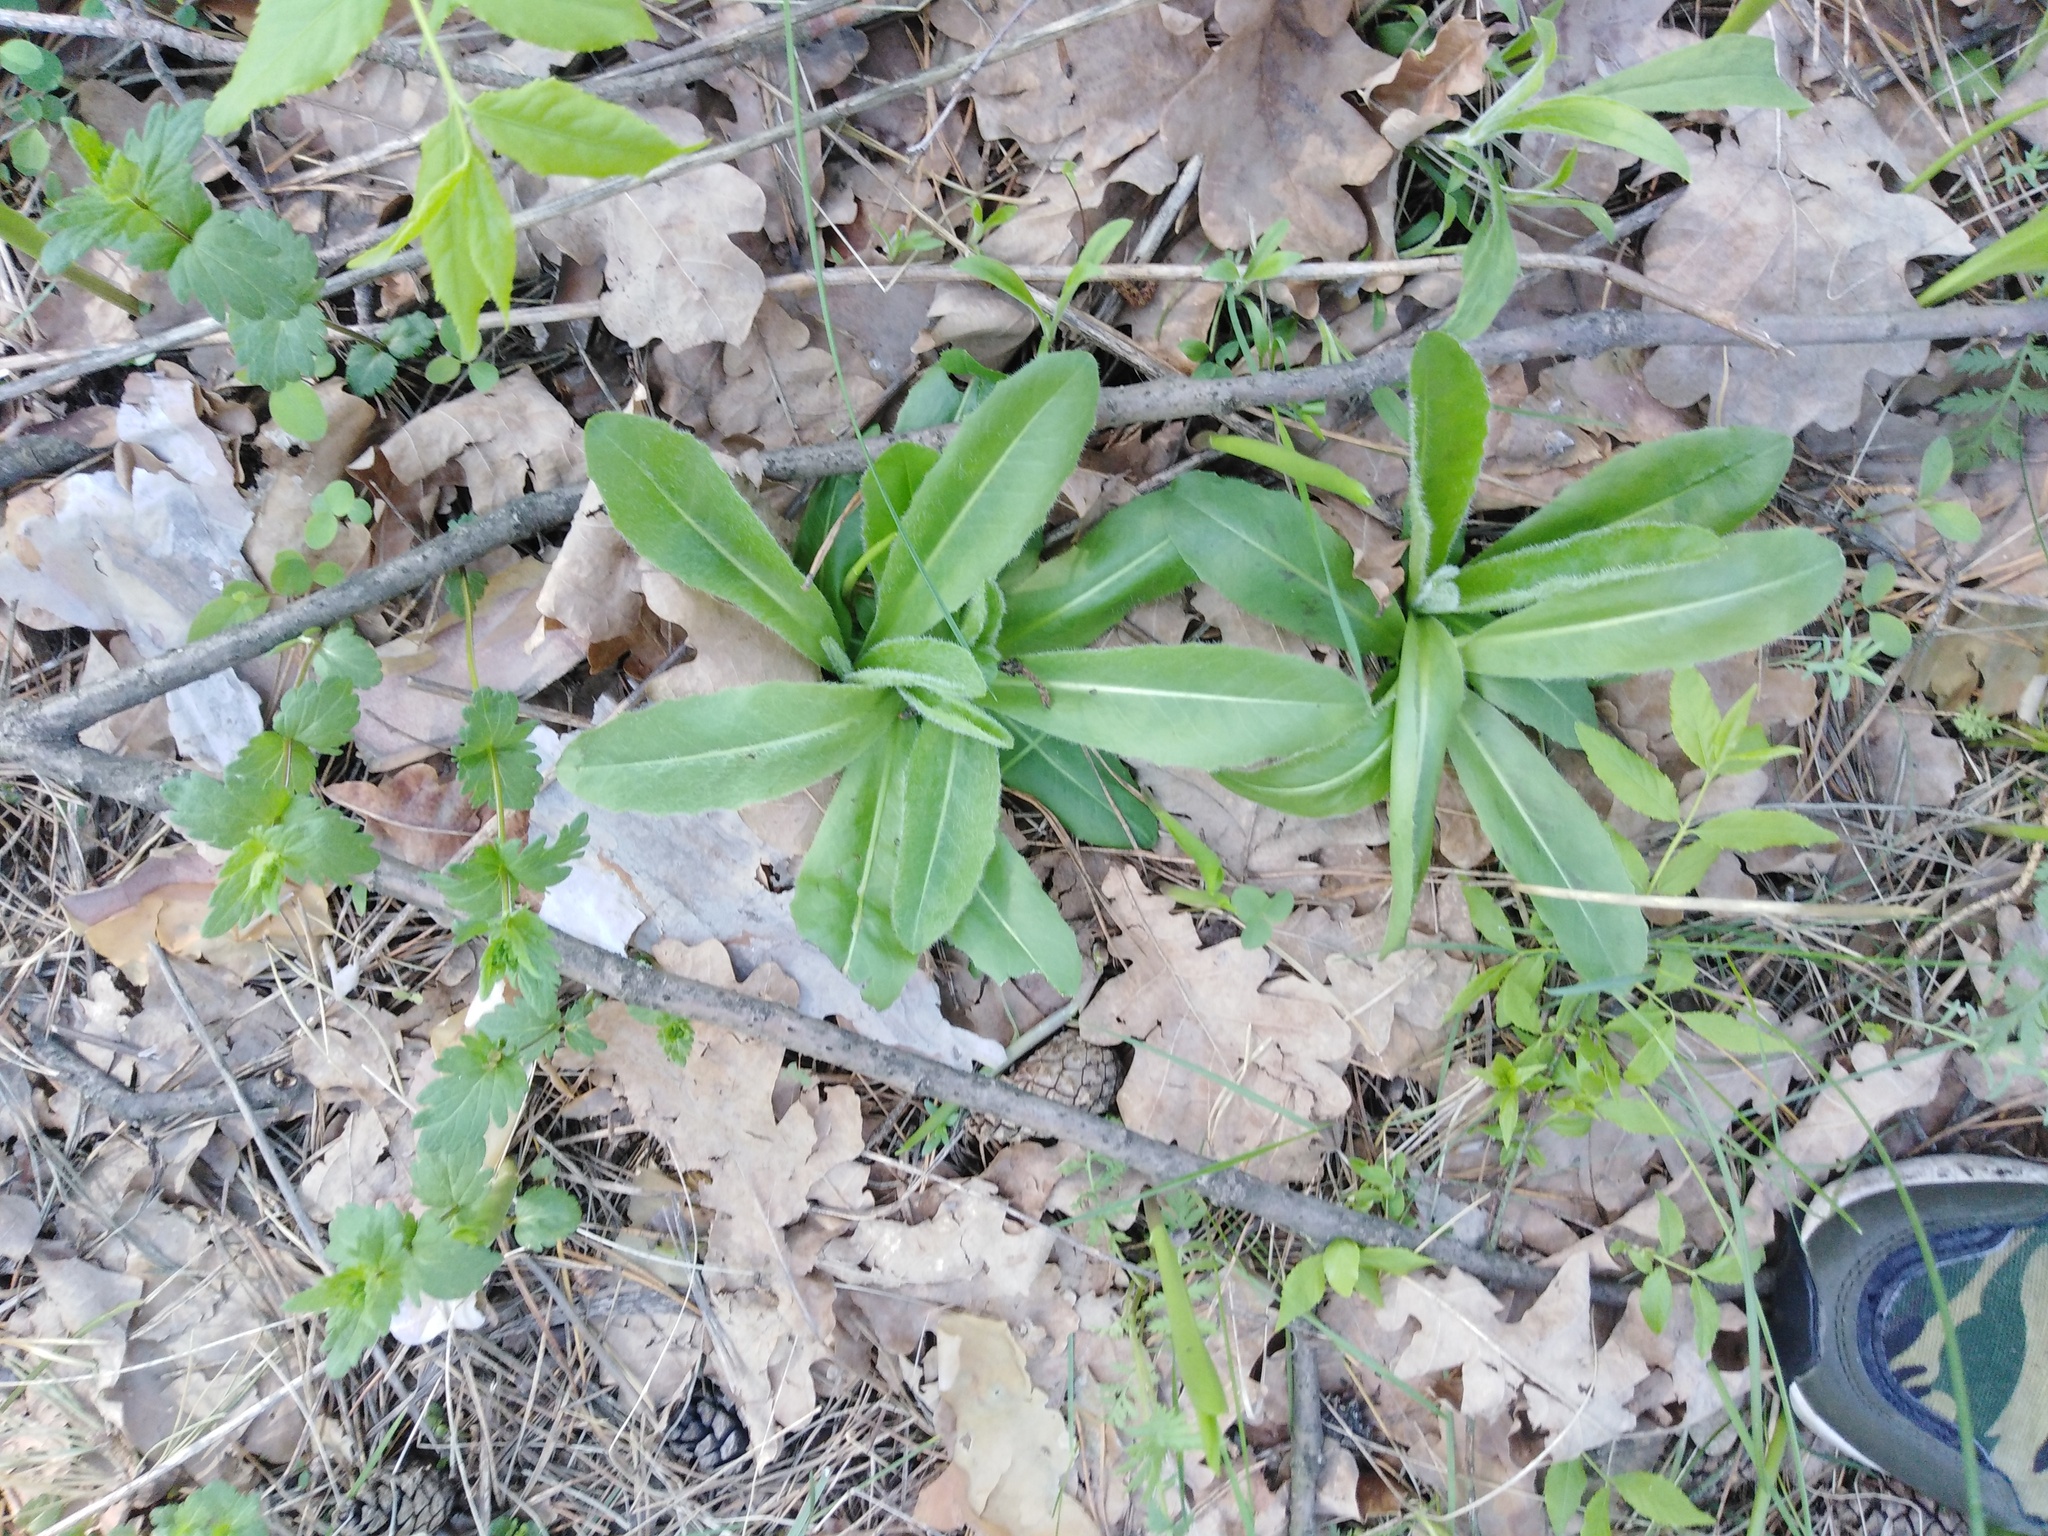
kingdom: Plantae
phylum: Tracheophyta
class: Magnoliopsida
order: Asterales
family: Asteraceae
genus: Trommsdorffia
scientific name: Trommsdorffia maculata
